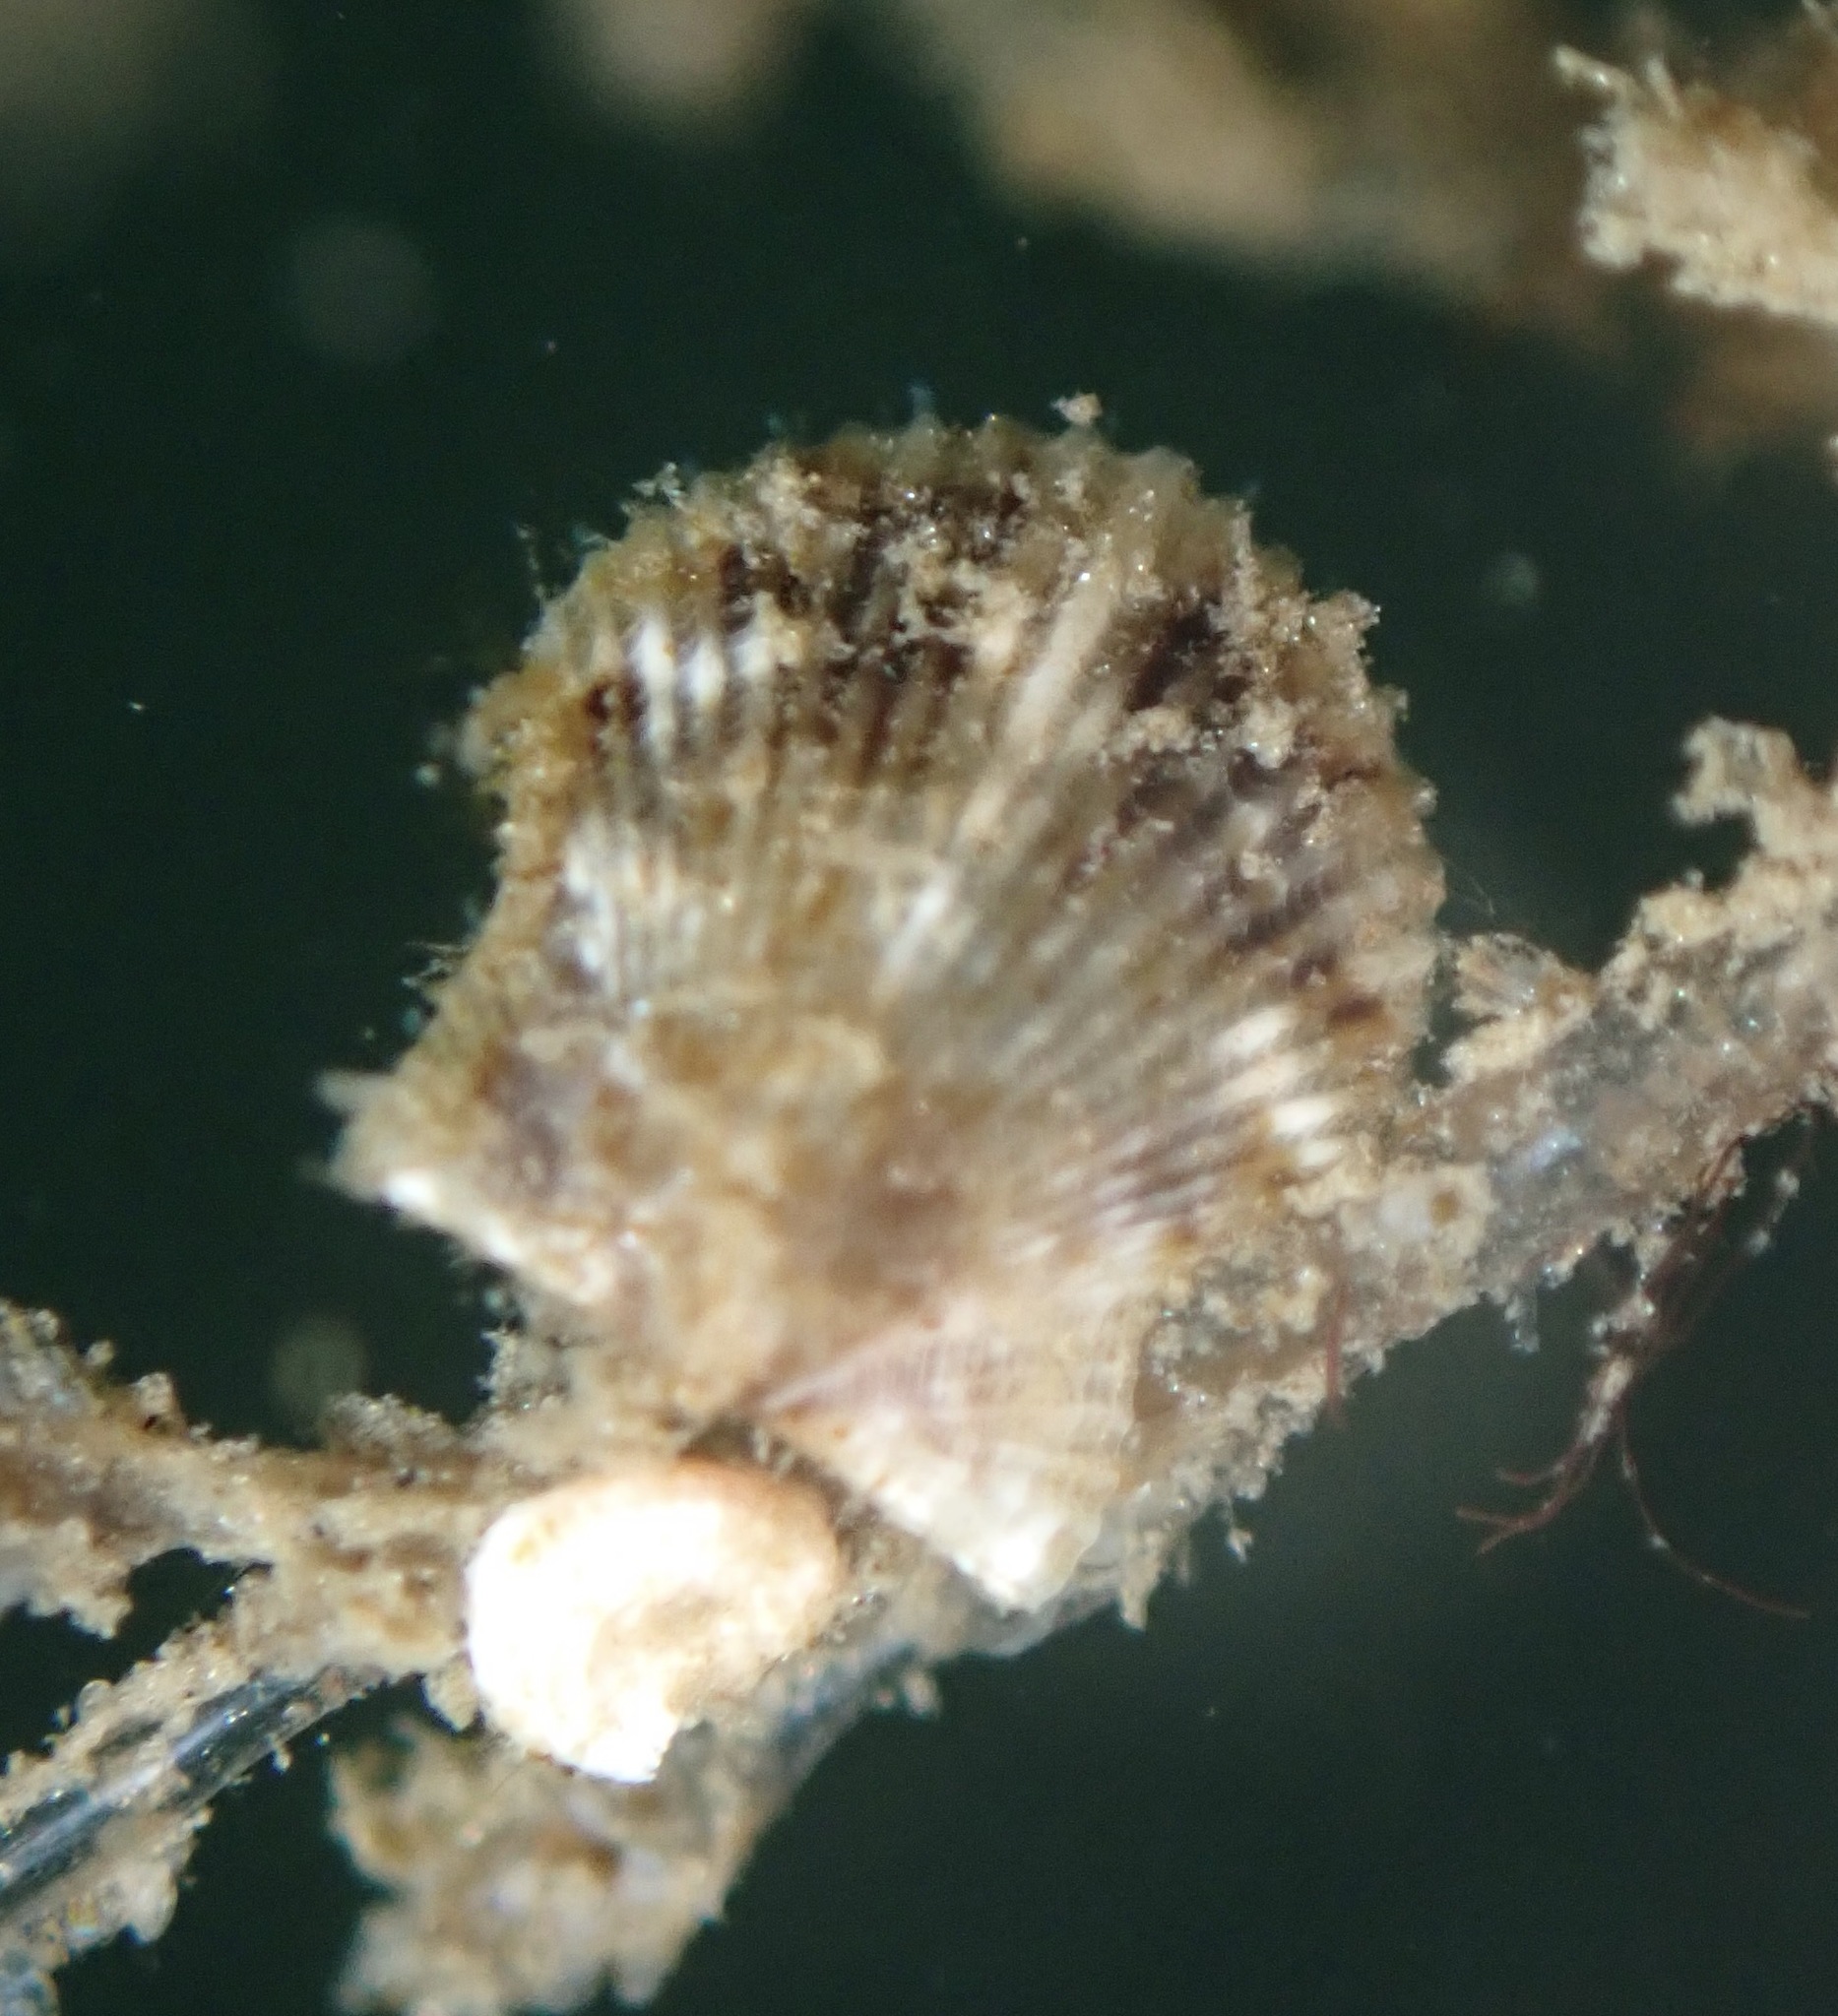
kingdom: Animalia
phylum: Mollusca
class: Bivalvia
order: Pectinida
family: Pectinidae
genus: Leptopecten
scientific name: Leptopecten latiauratus
